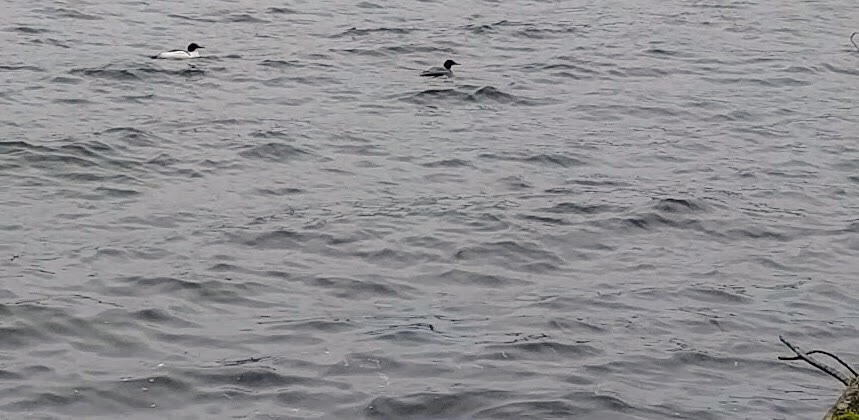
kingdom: Animalia
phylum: Chordata
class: Aves
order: Anseriformes
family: Anatidae
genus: Mergus
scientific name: Mergus merganser
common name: Common merganser
